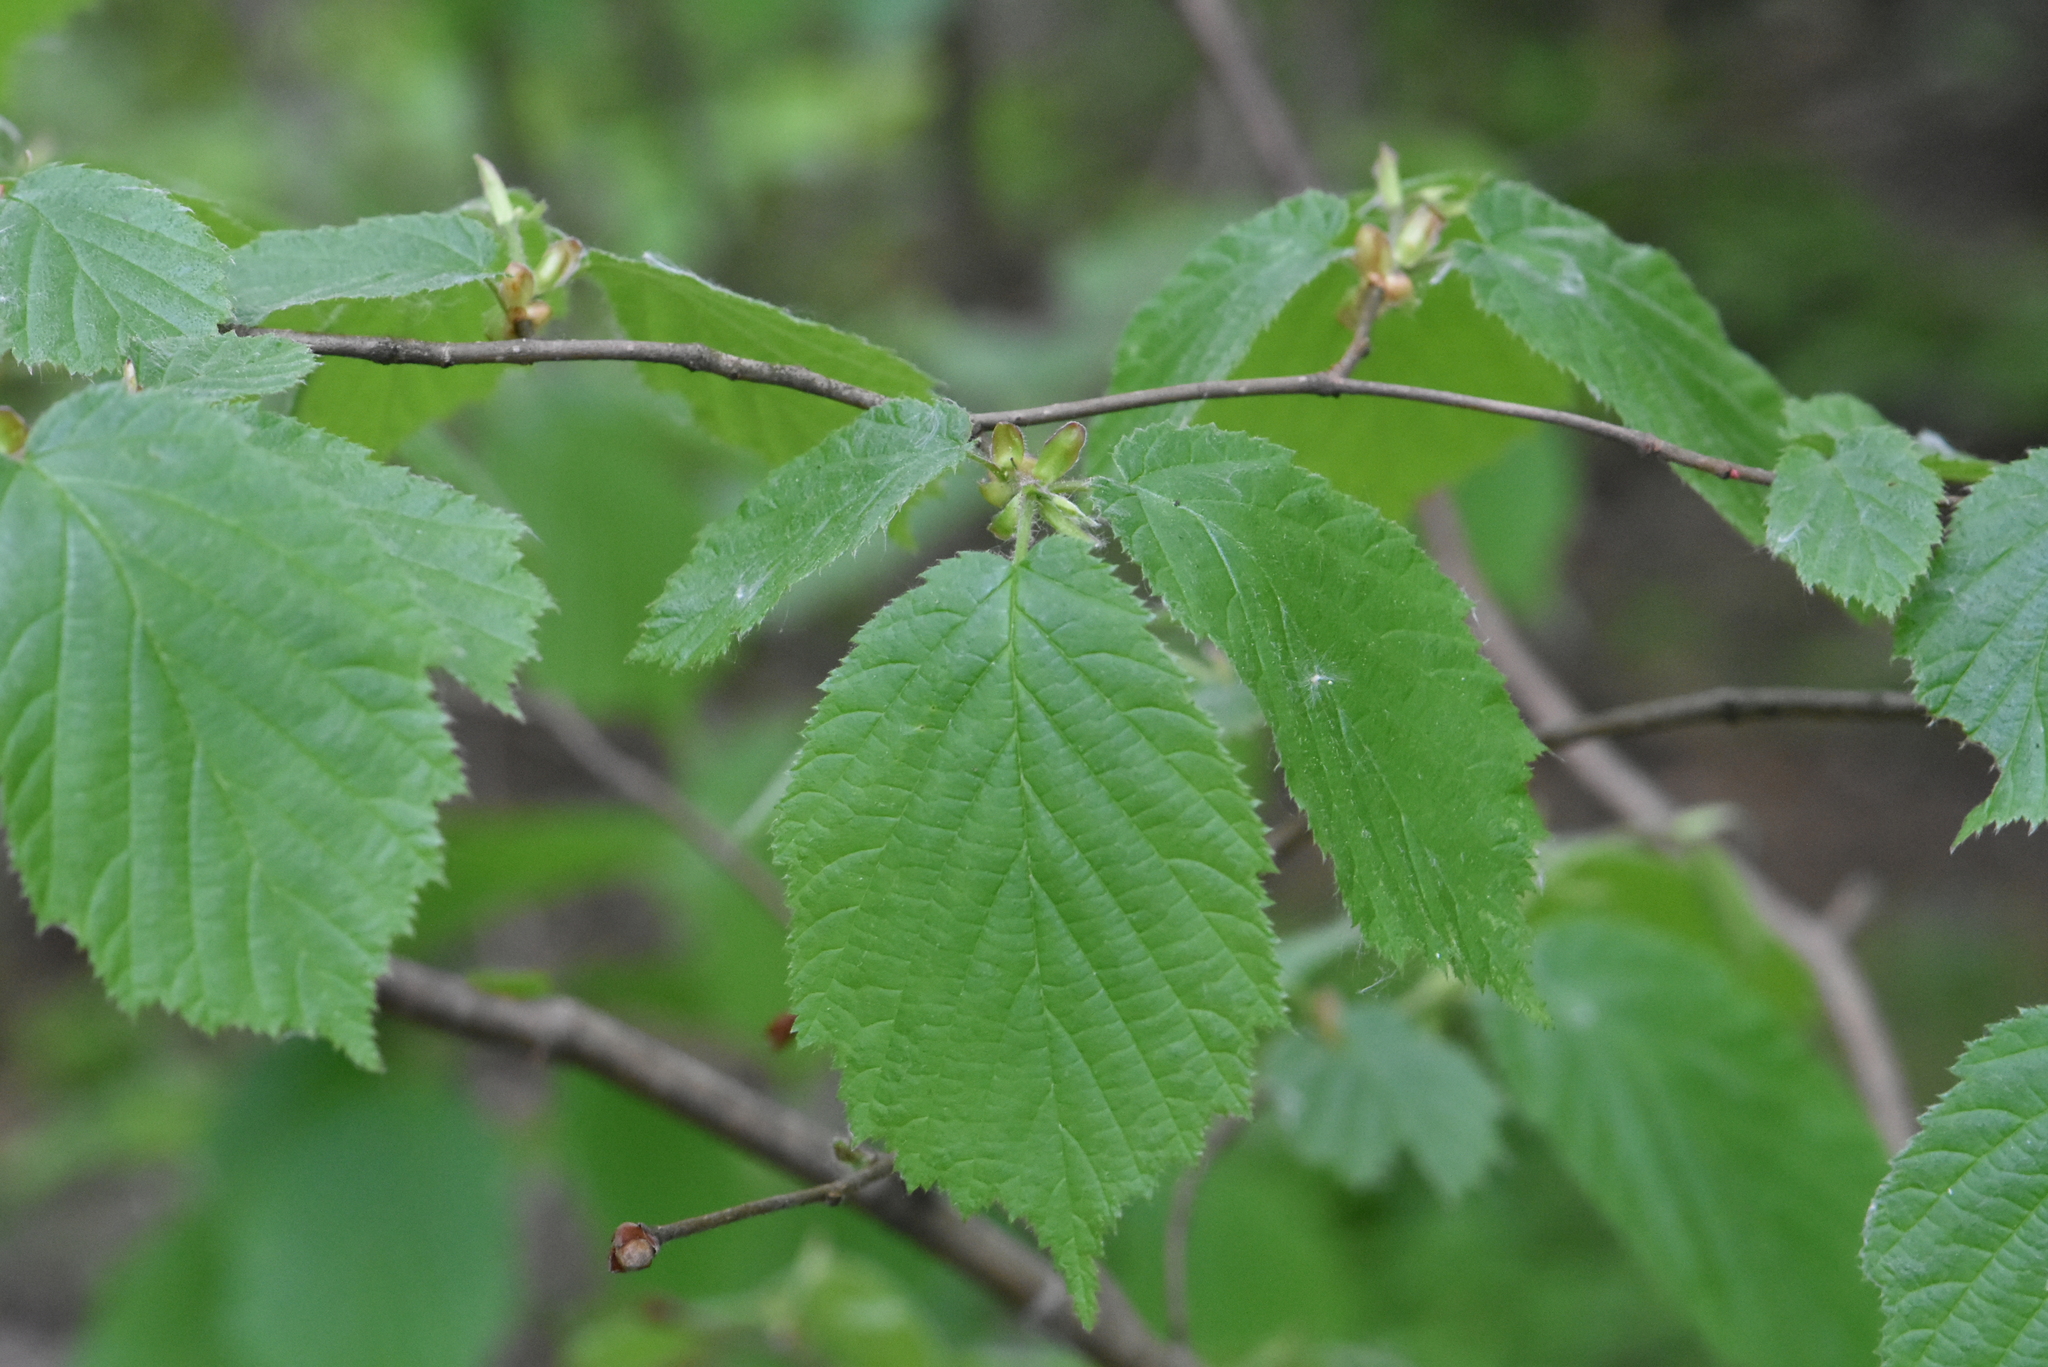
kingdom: Plantae
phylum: Tracheophyta
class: Magnoliopsida
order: Fagales
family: Betulaceae
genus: Corylus
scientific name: Corylus avellana
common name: European hazel
